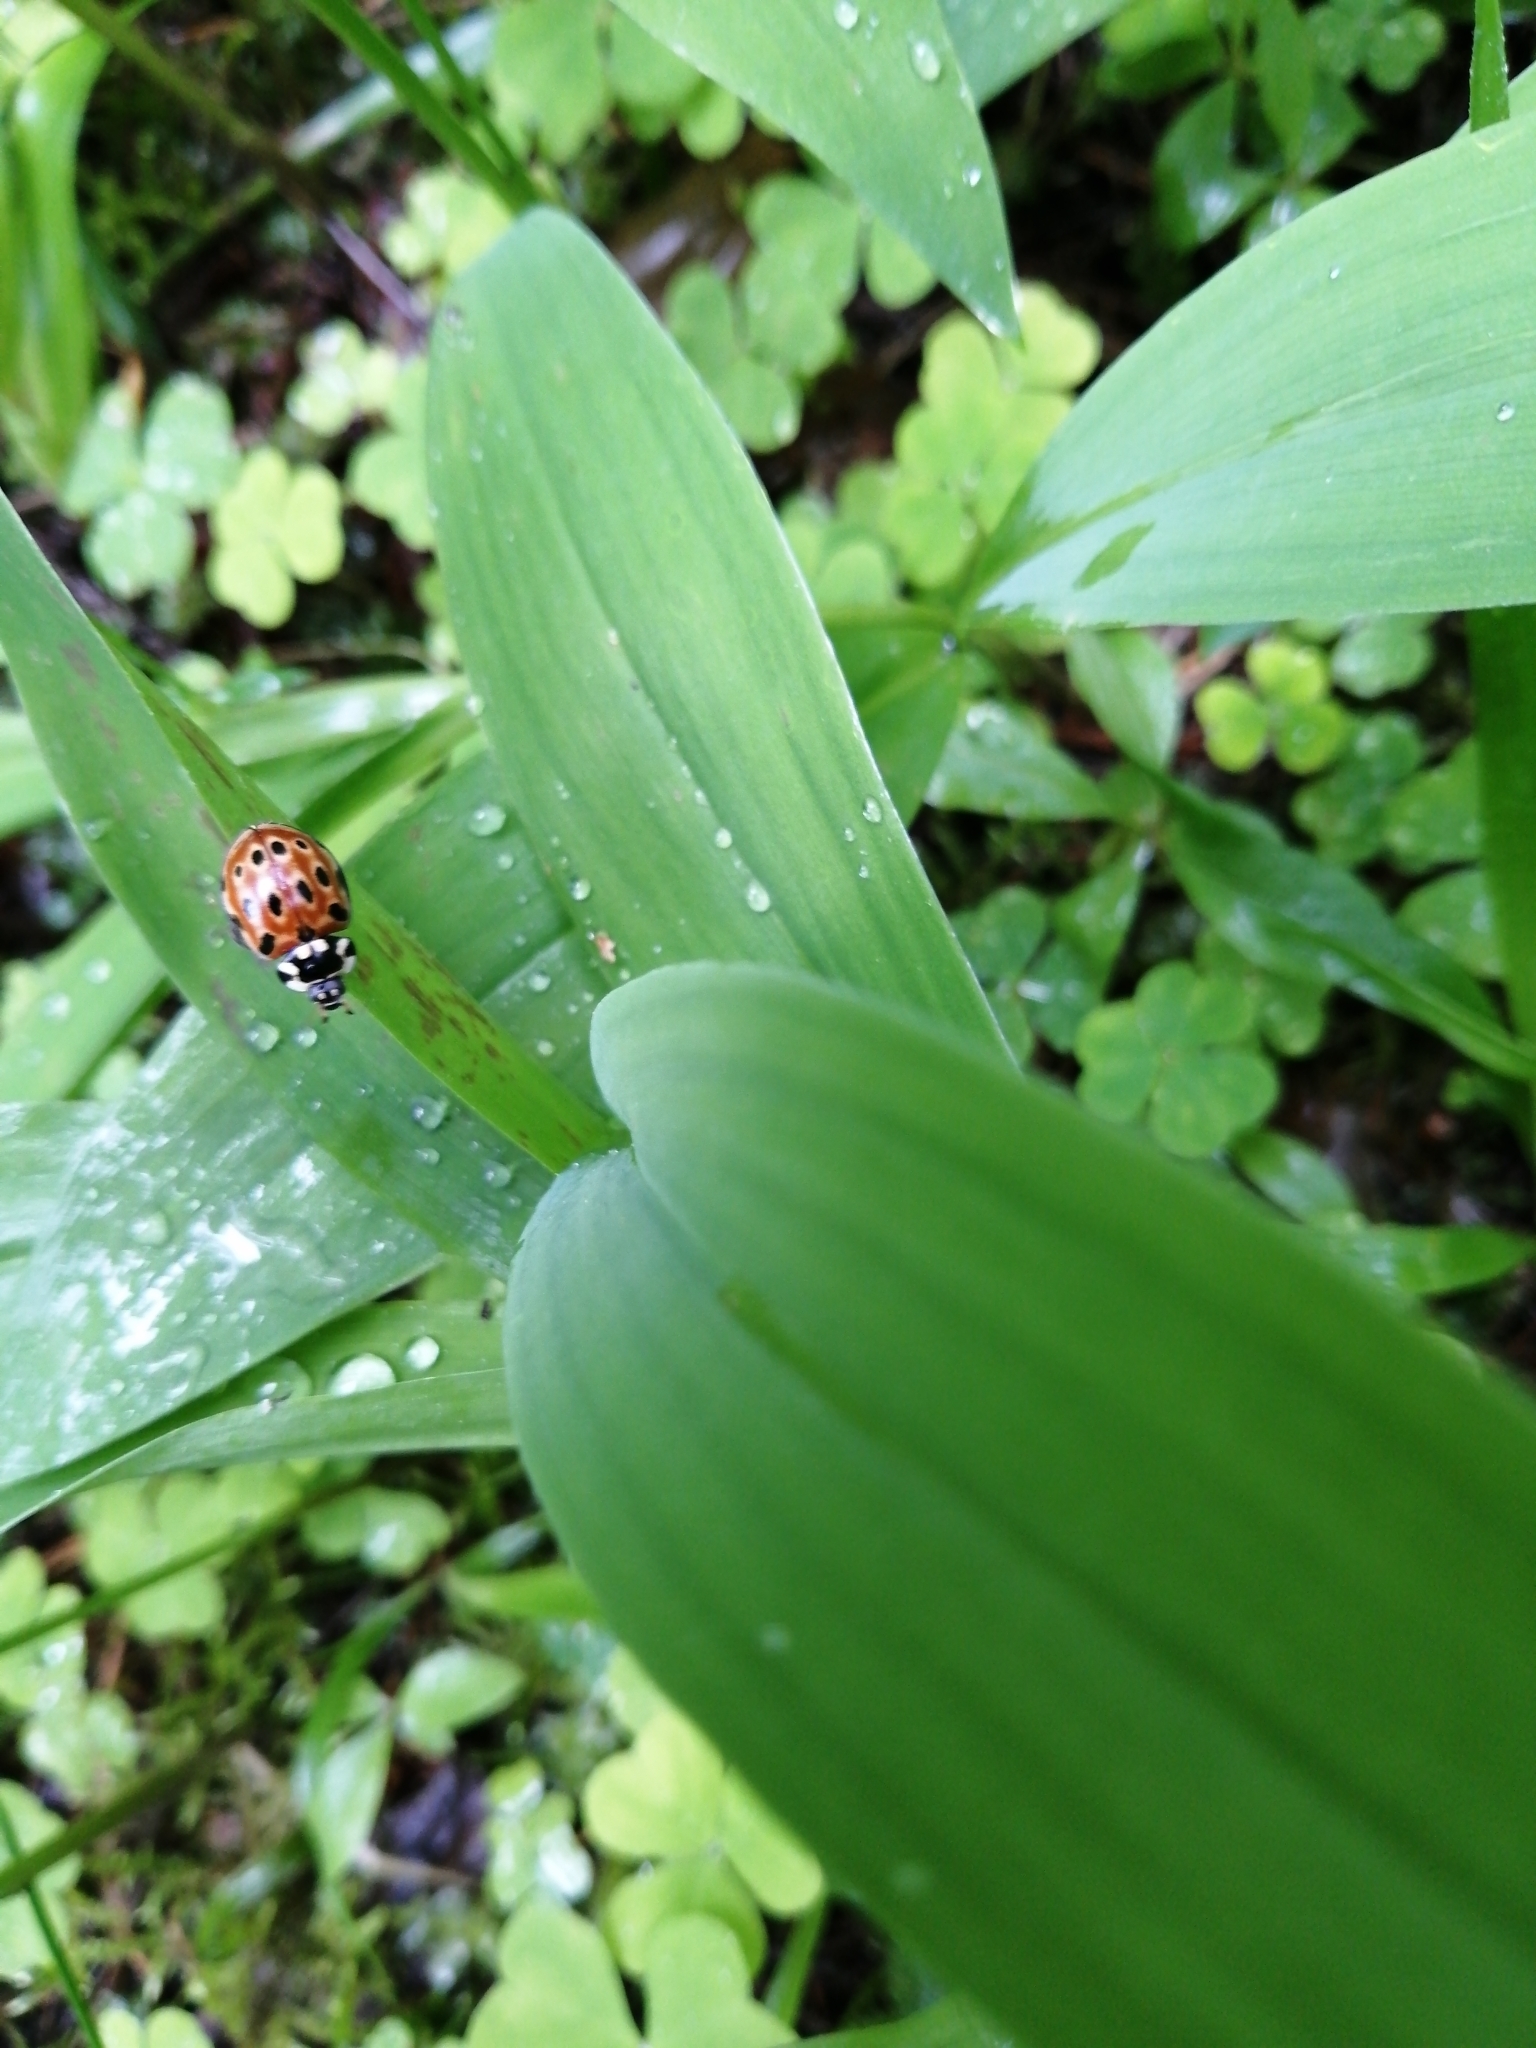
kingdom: Animalia
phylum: Arthropoda
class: Insecta
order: Coleoptera
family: Coccinellidae
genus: Anatis
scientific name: Anatis ocellata
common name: Eyed ladybird
